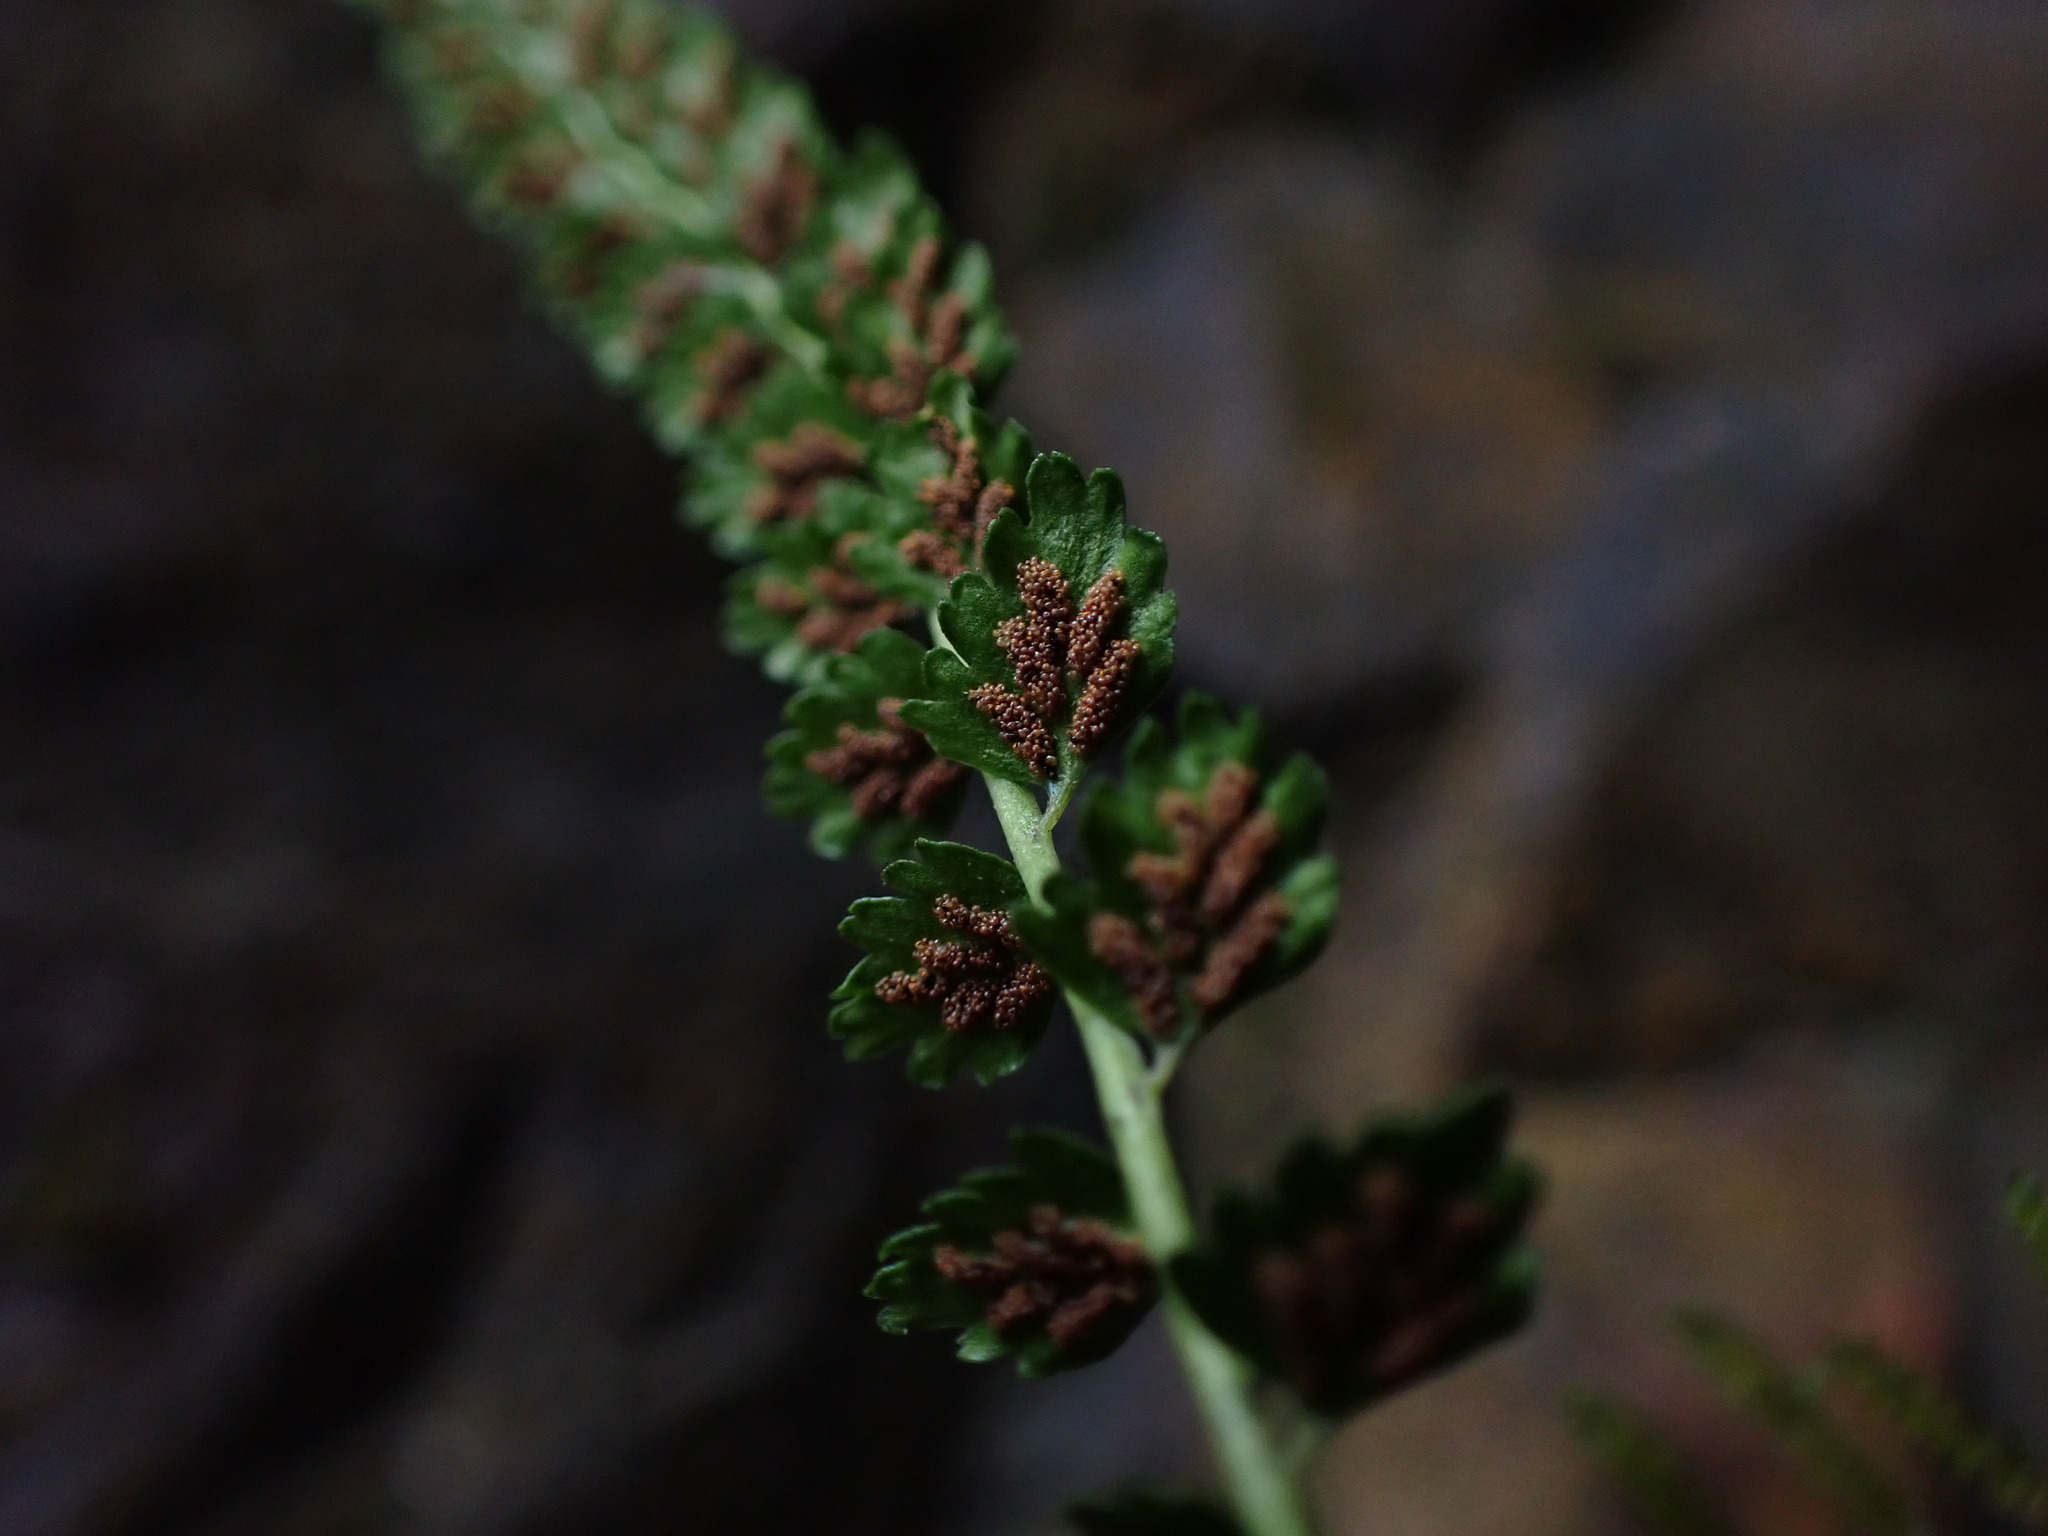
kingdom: Plantae
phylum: Tracheophyta
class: Polypodiopsida
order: Polypodiales
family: Aspleniaceae
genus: Asplenium
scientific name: Asplenium viride
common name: Green spleenwort
